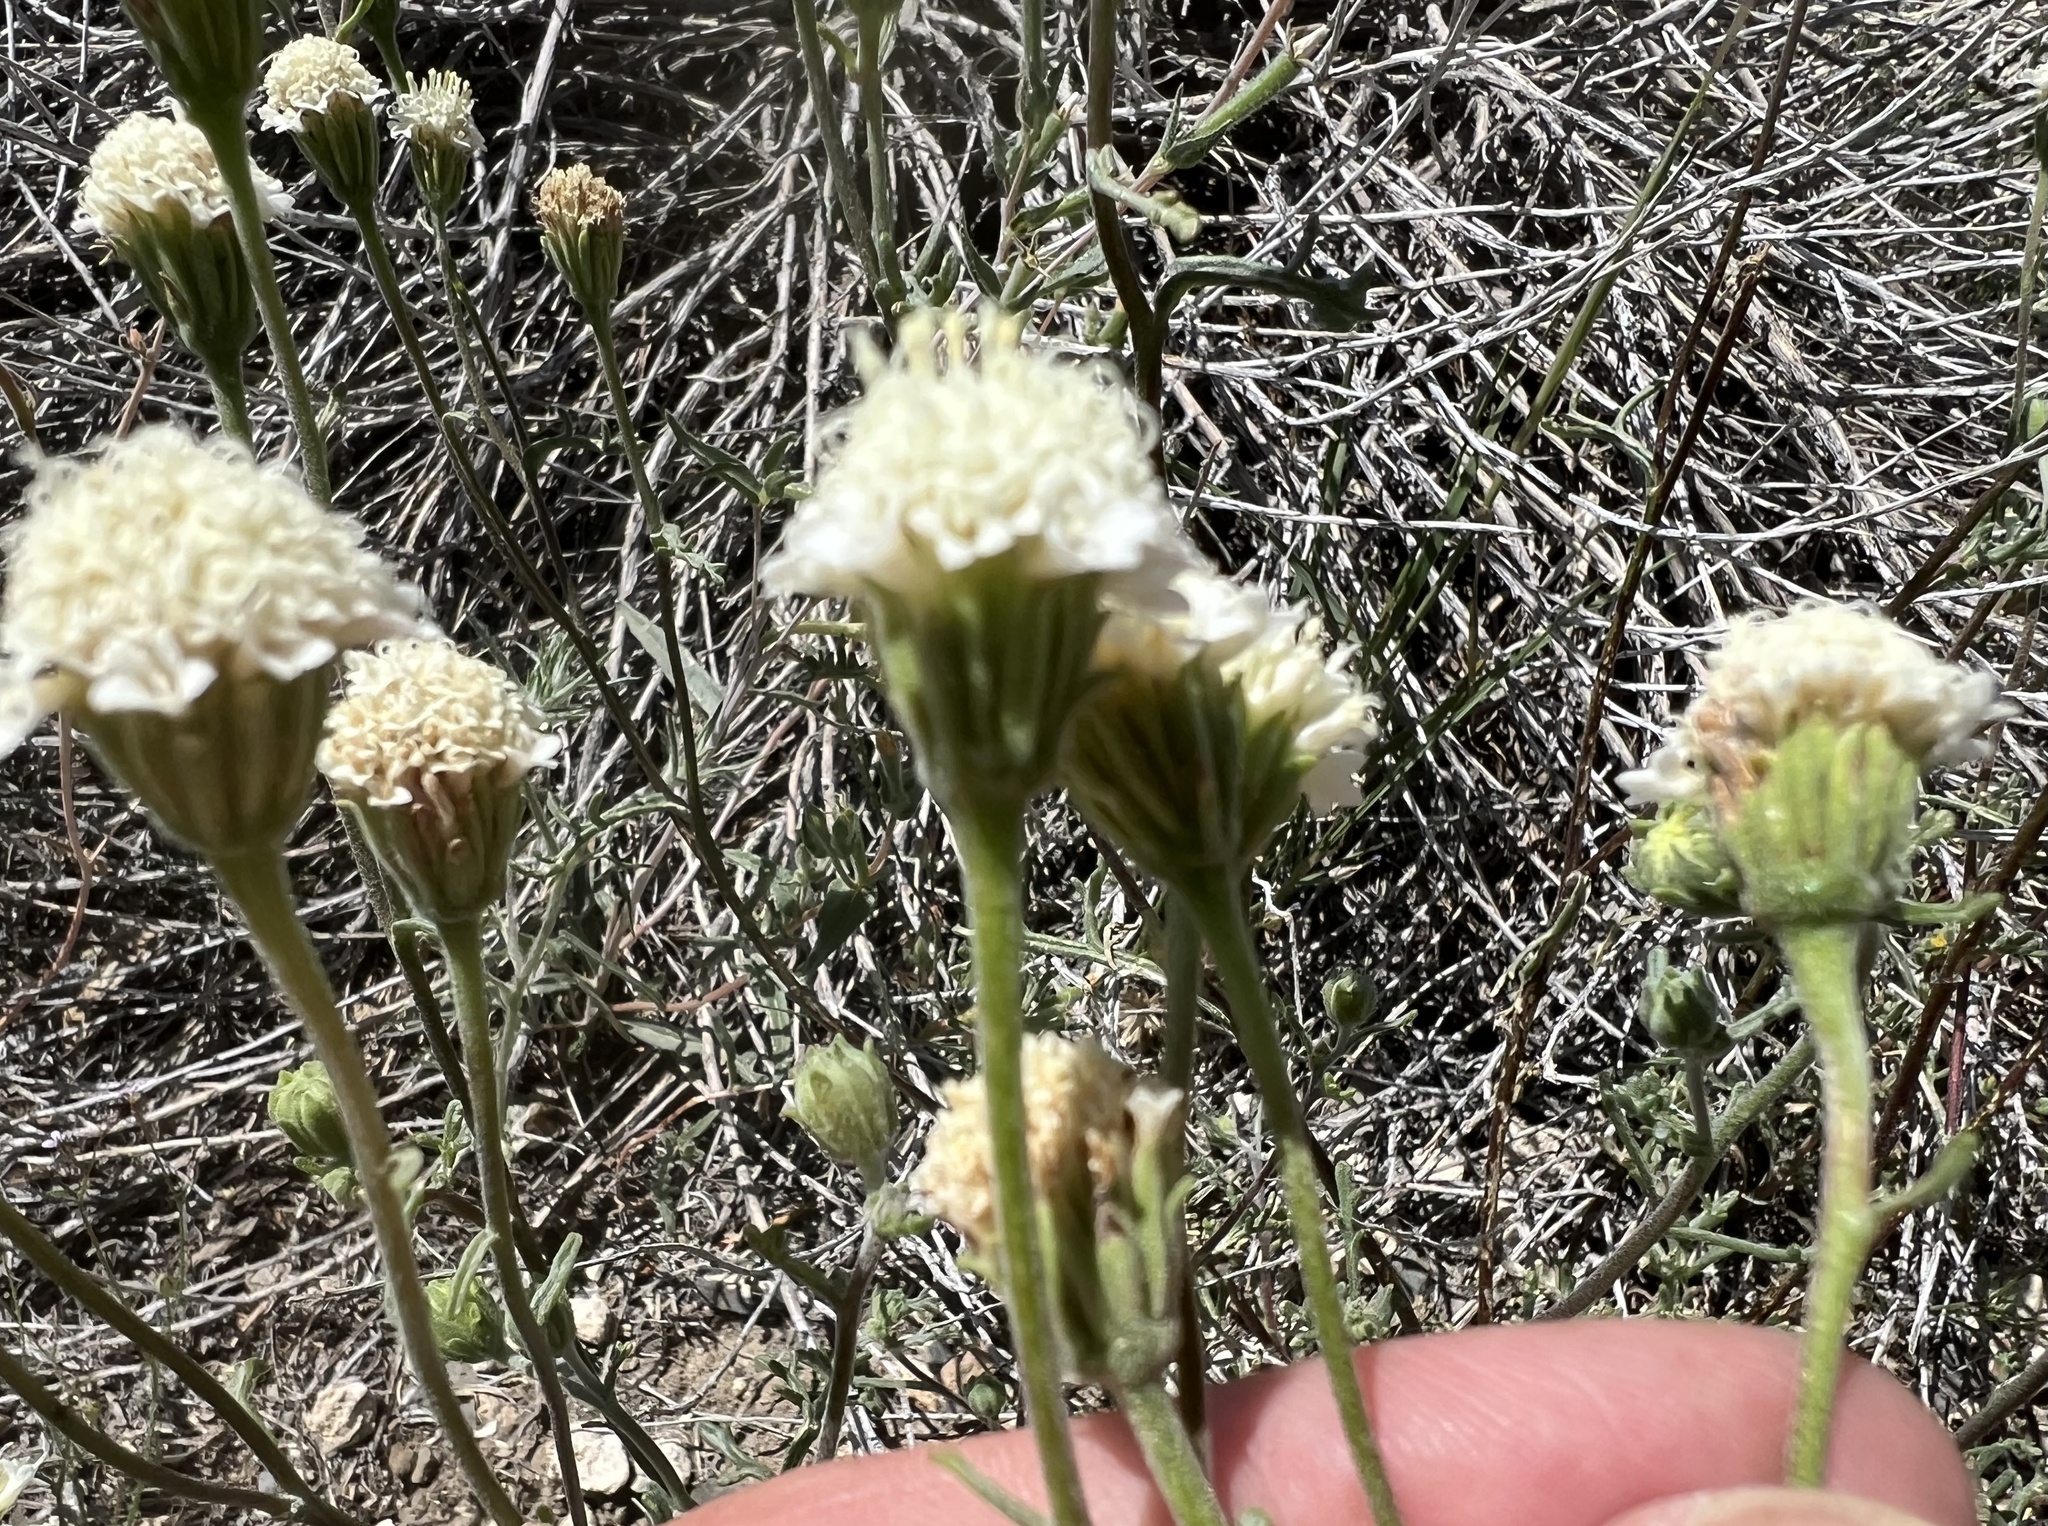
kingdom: Plantae
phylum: Tracheophyta
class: Magnoliopsida
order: Asterales
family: Asteraceae
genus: Chaenactis
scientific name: Chaenactis stevioides
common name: Desert pincushion
